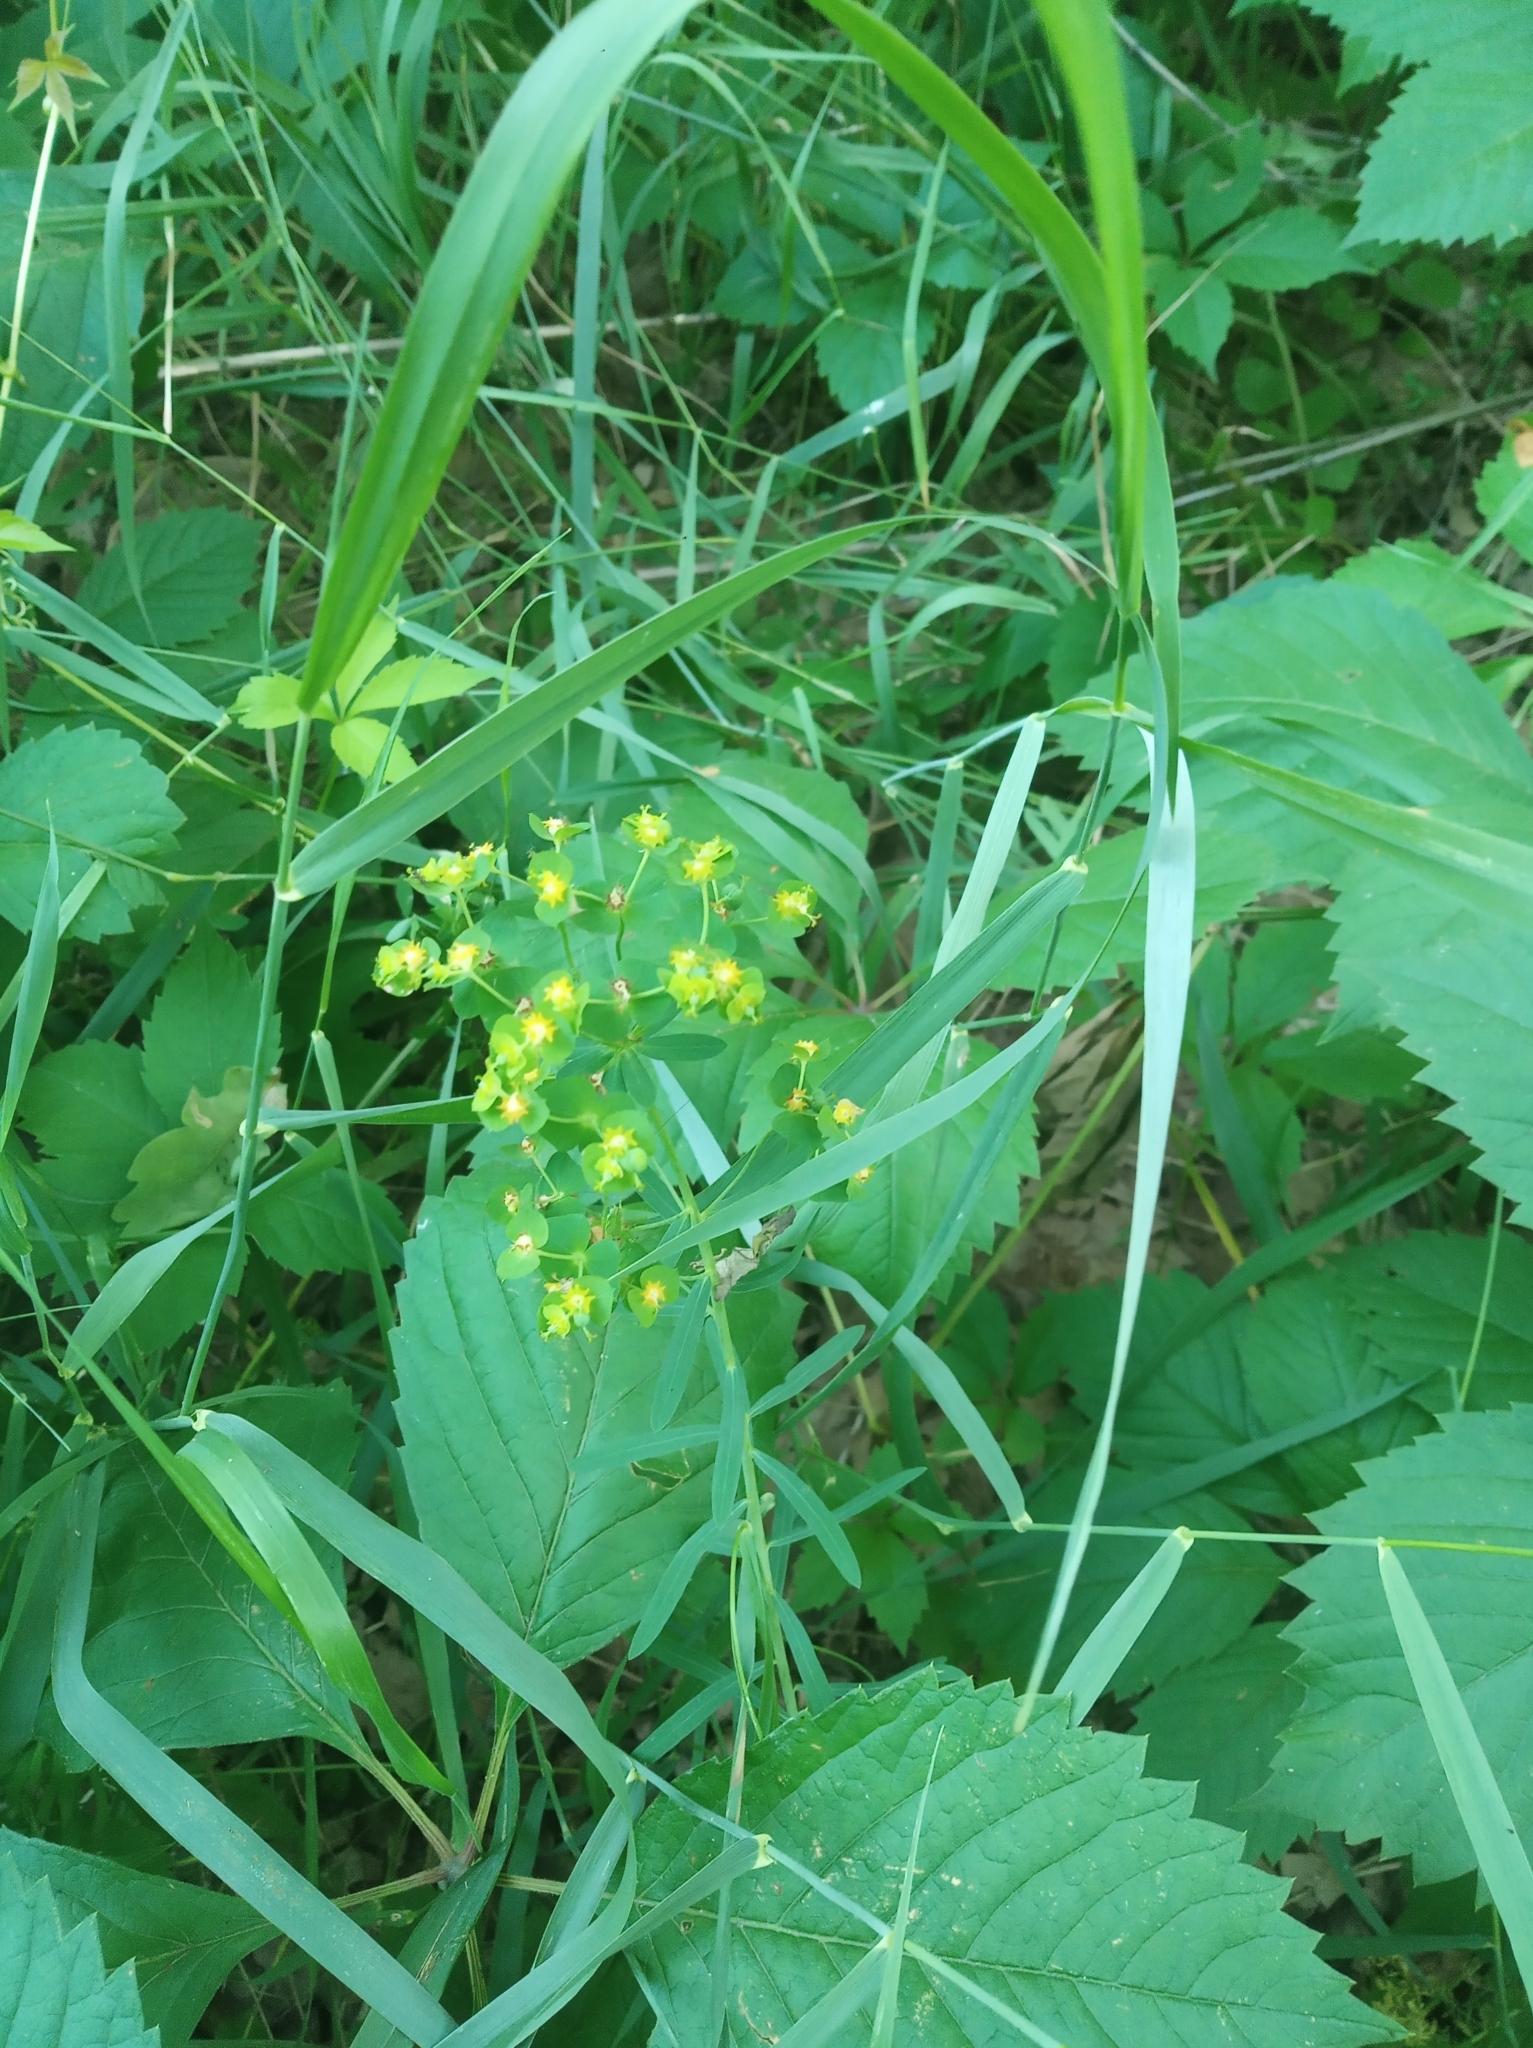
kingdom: Plantae
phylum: Tracheophyta
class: Magnoliopsida
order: Malpighiales
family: Euphorbiaceae
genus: Euphorbia
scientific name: Euphorbia virgata
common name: Leafy spurge
